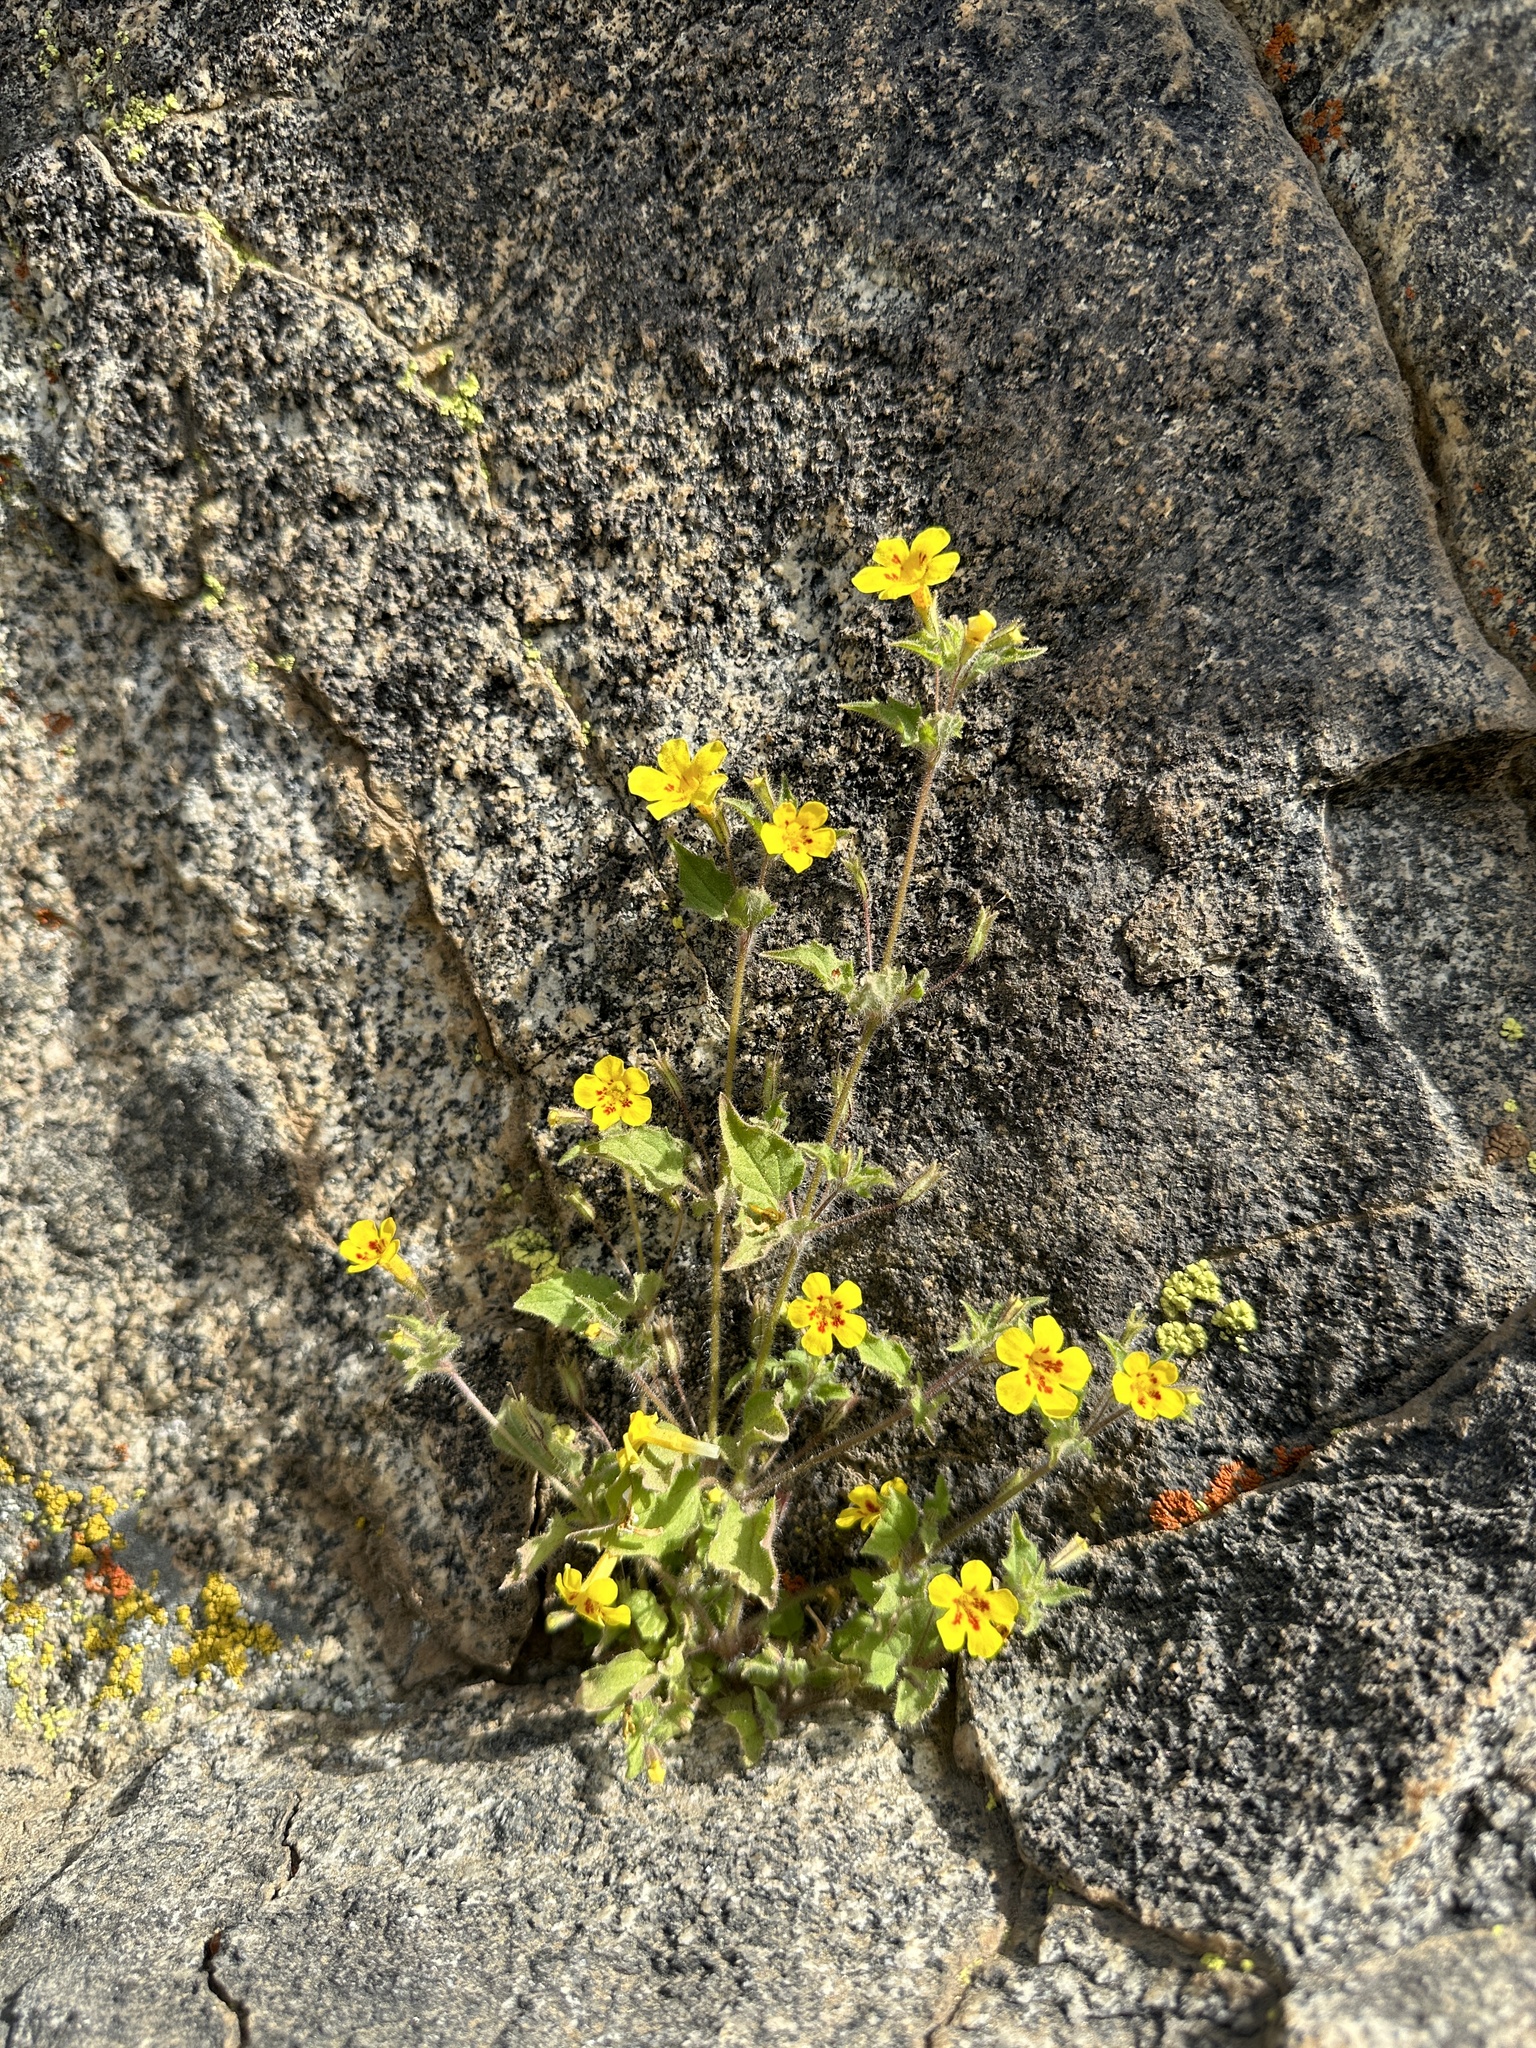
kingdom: Plantae
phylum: Tracheophyta
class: Magnoliopsida
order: Lamiales
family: Phrymaceae
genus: Erythranthe
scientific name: Erythranthe geniculata
